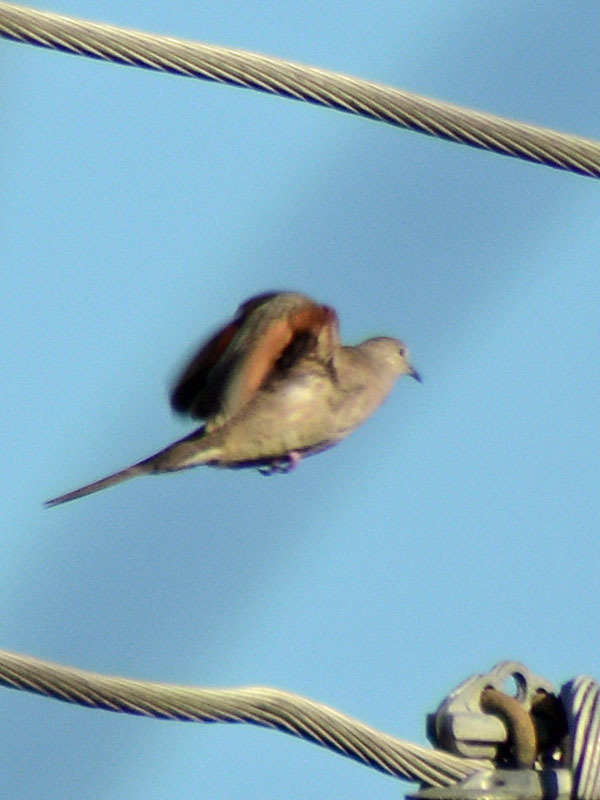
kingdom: Animalia
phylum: Chordata
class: Aves
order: Columbiformes
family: Columbidae
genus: Columbina
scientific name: Columbina inca
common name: Inca dove
